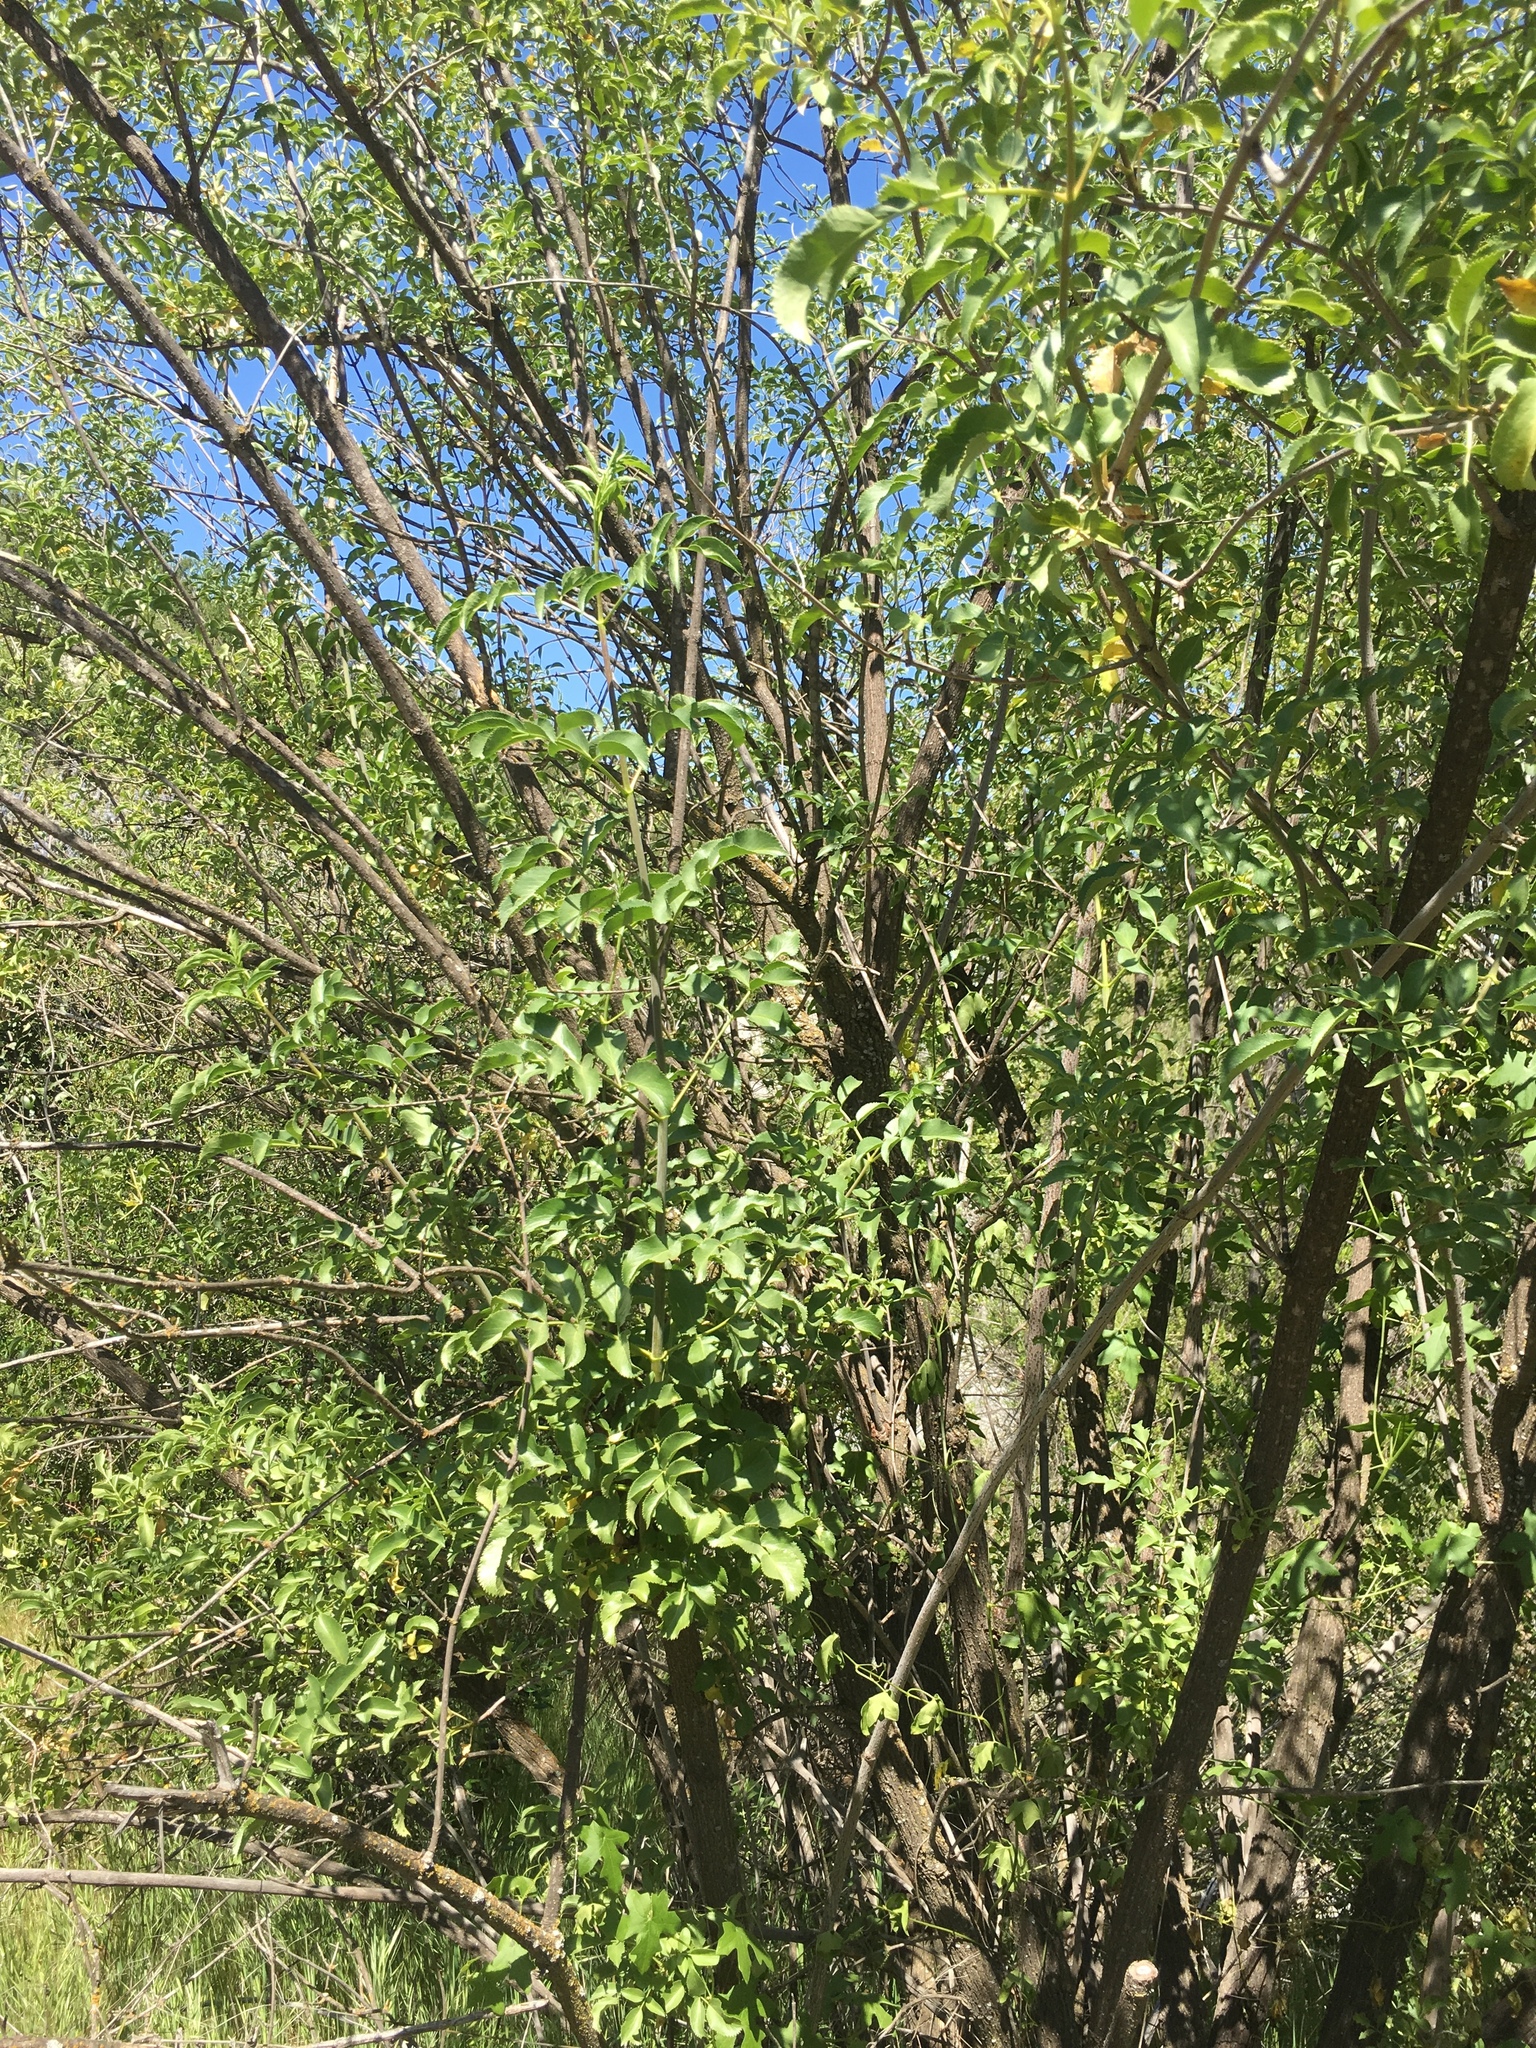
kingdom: Plantae
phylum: Tracheophyta
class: Magnoliopsida
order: Dipsacales
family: Viburnaceae
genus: Sambucus
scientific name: Sambucus cerulea
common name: Blue elder
